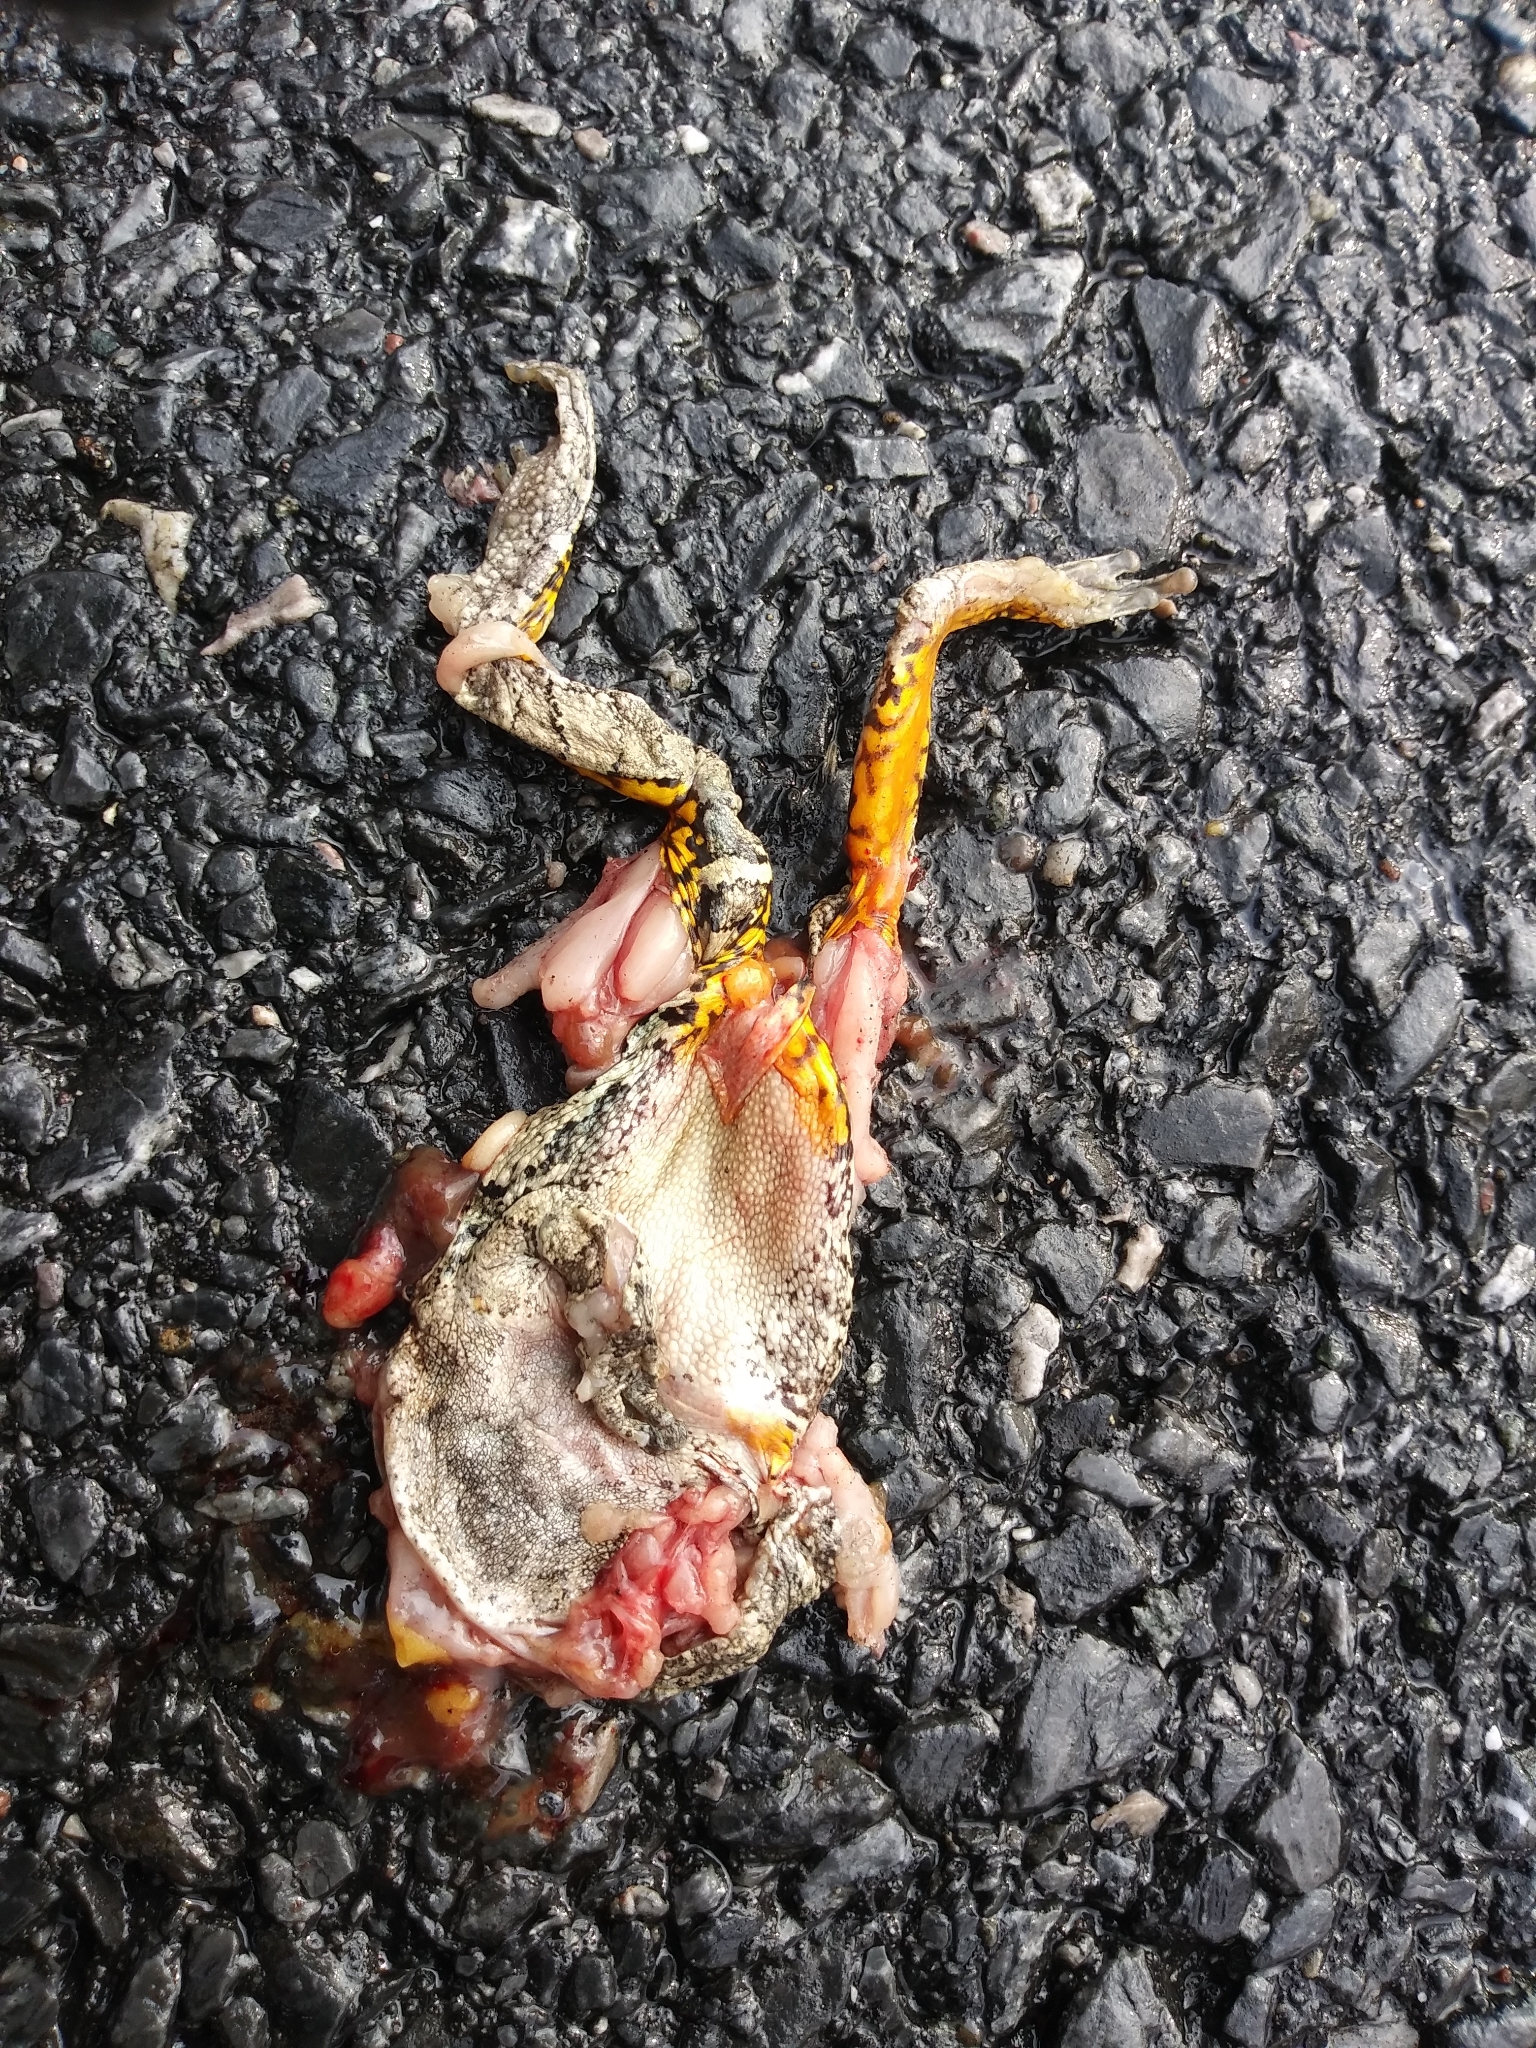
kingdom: Animalia
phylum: Chordata
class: Amphibia
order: Anura
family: Hylidae
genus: Hyla
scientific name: Hyla
